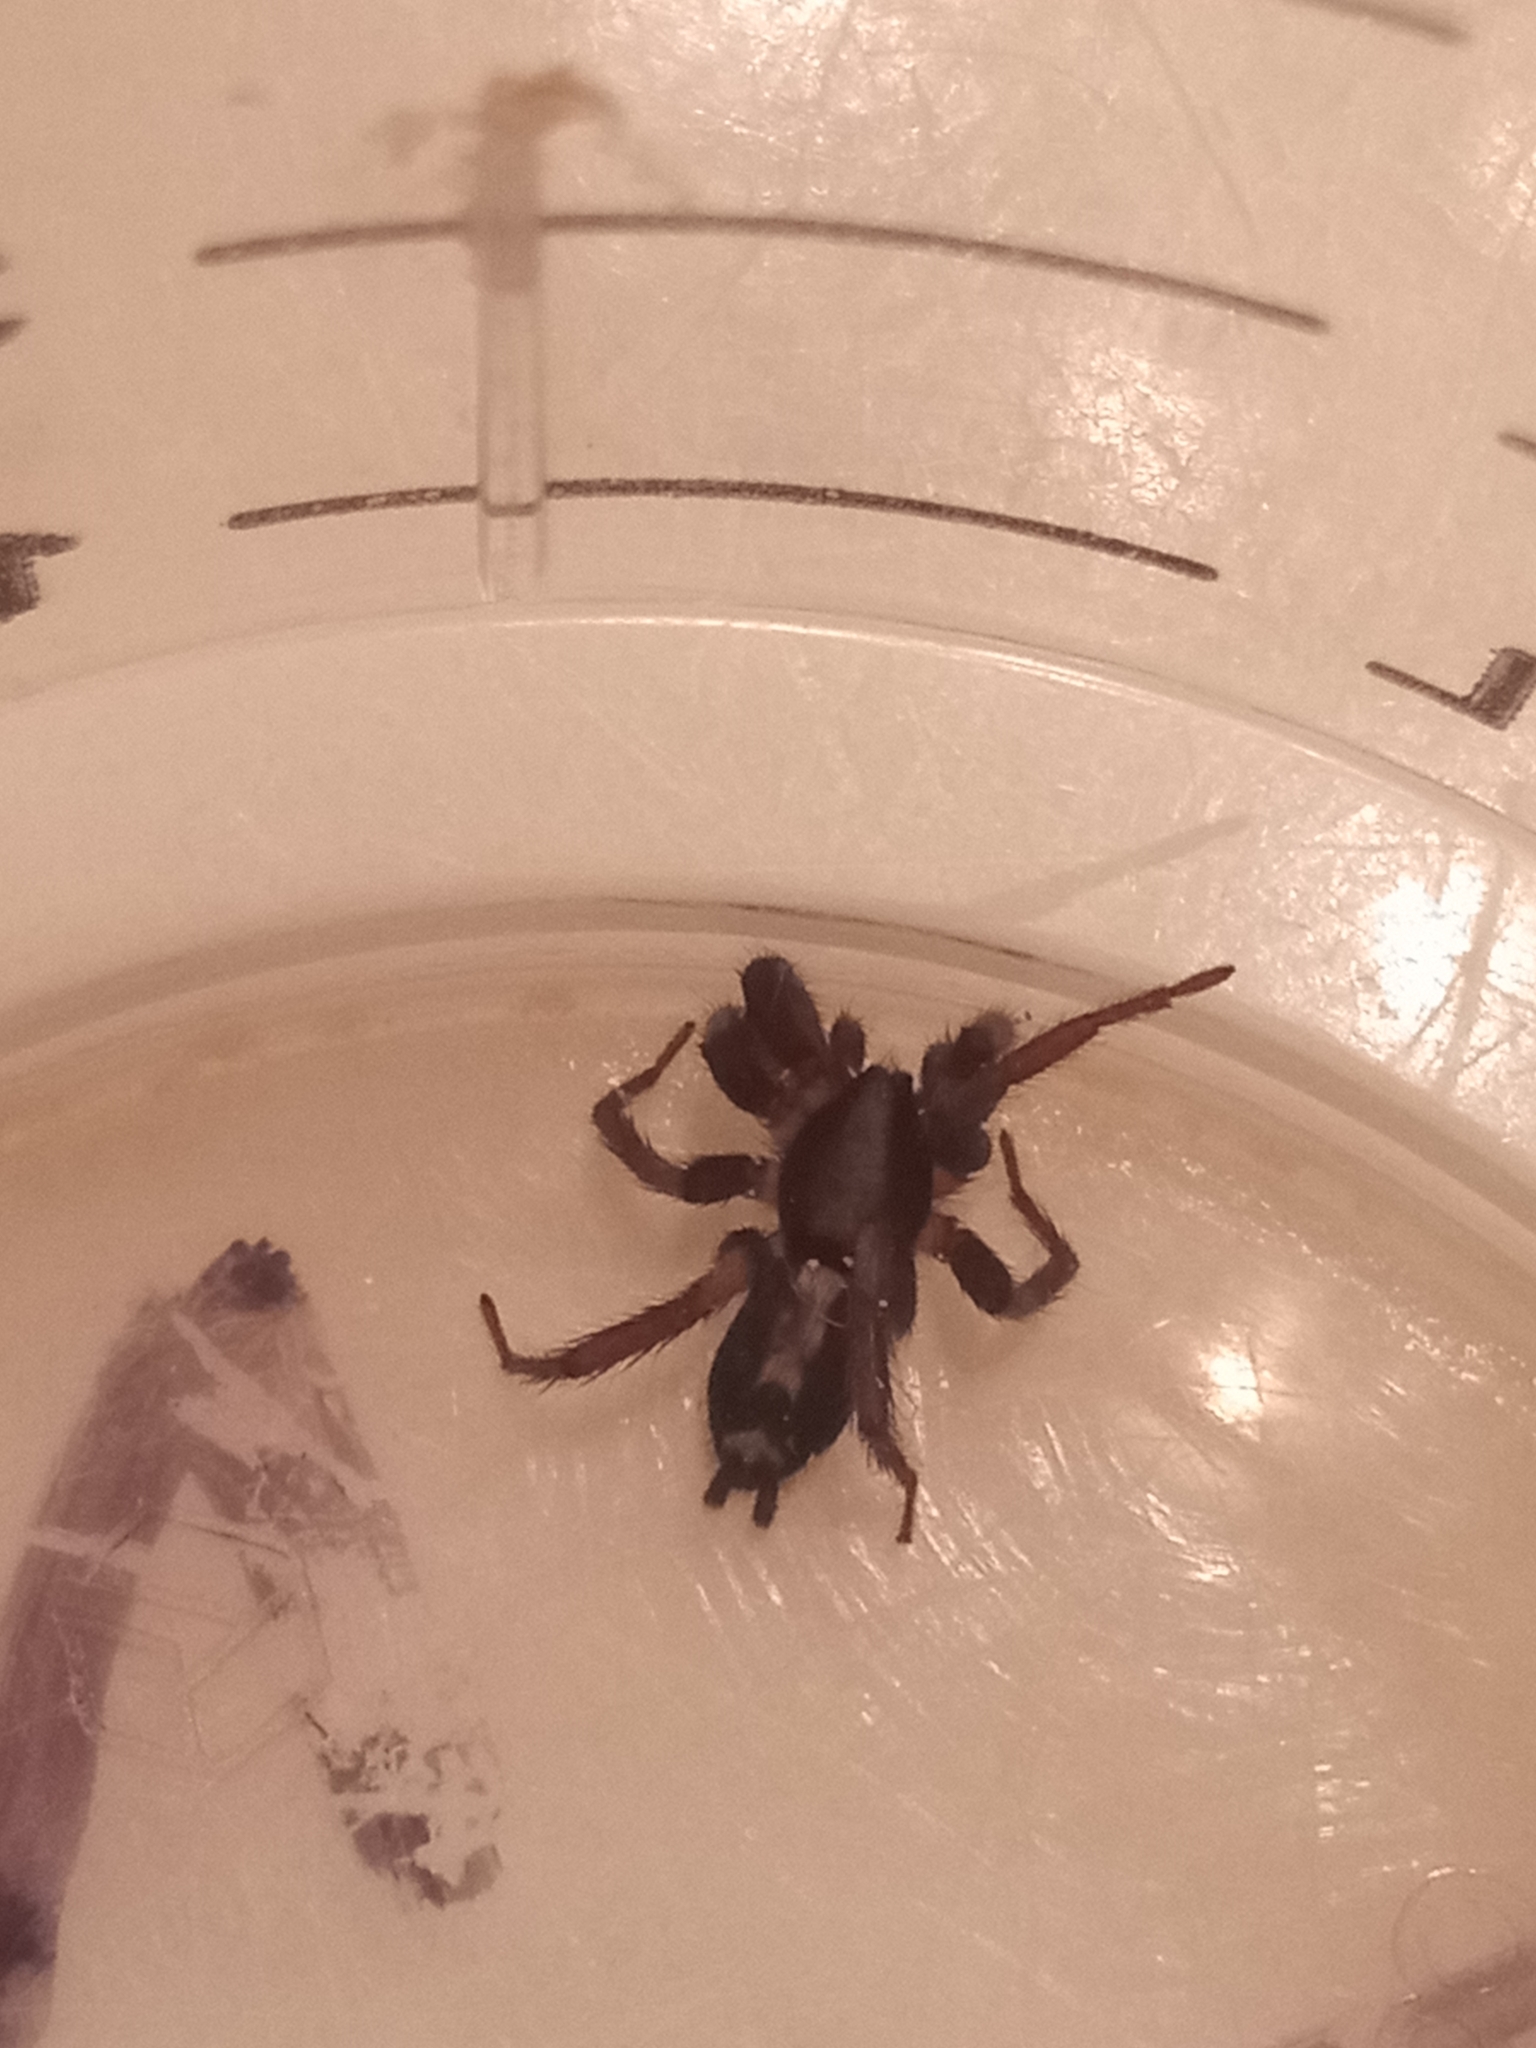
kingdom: Animalia
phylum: Arthropoda
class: Arachnida
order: Araneae
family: Gnaphosidae
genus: Herpyllus
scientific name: Herpyllus ecclesiasticus
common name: Eastern parson spider
